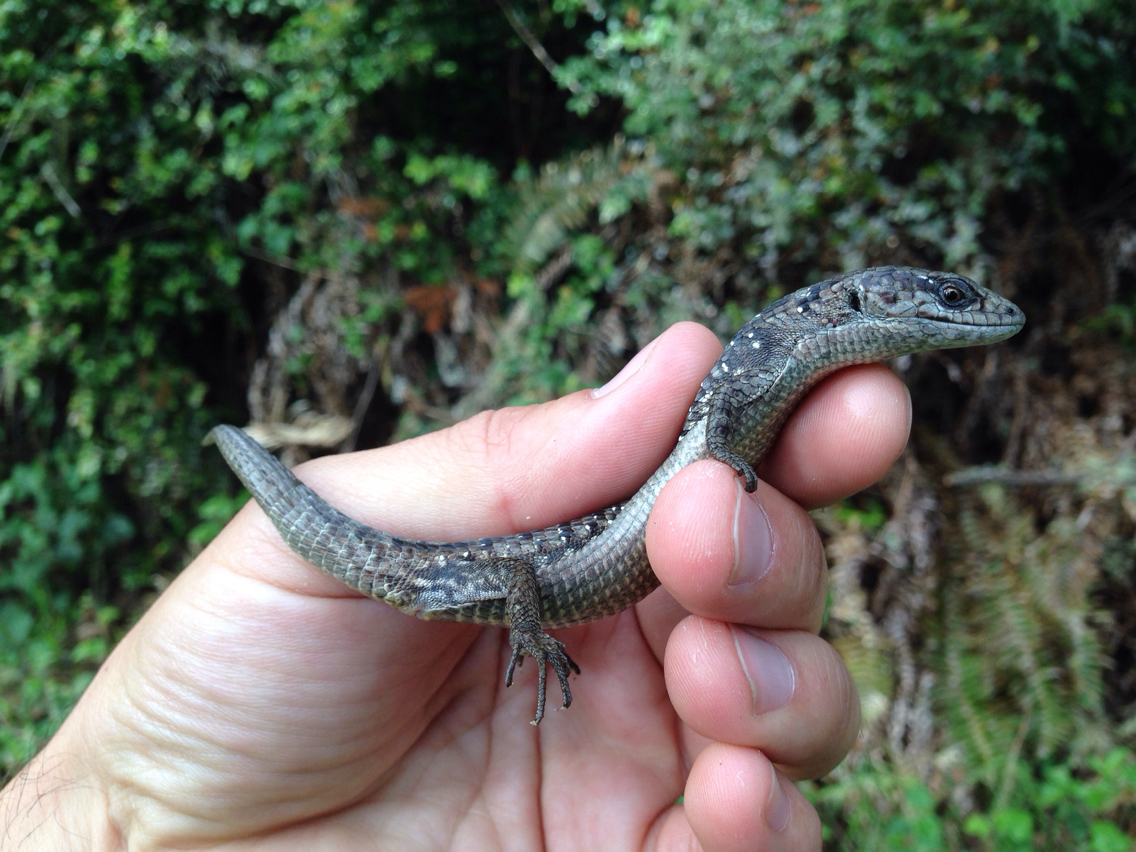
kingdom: Animalia
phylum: Chordata
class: Squamata
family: Anguidae
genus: Elgaria
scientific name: Elgaria coerulea
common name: Northern alligator lizard
